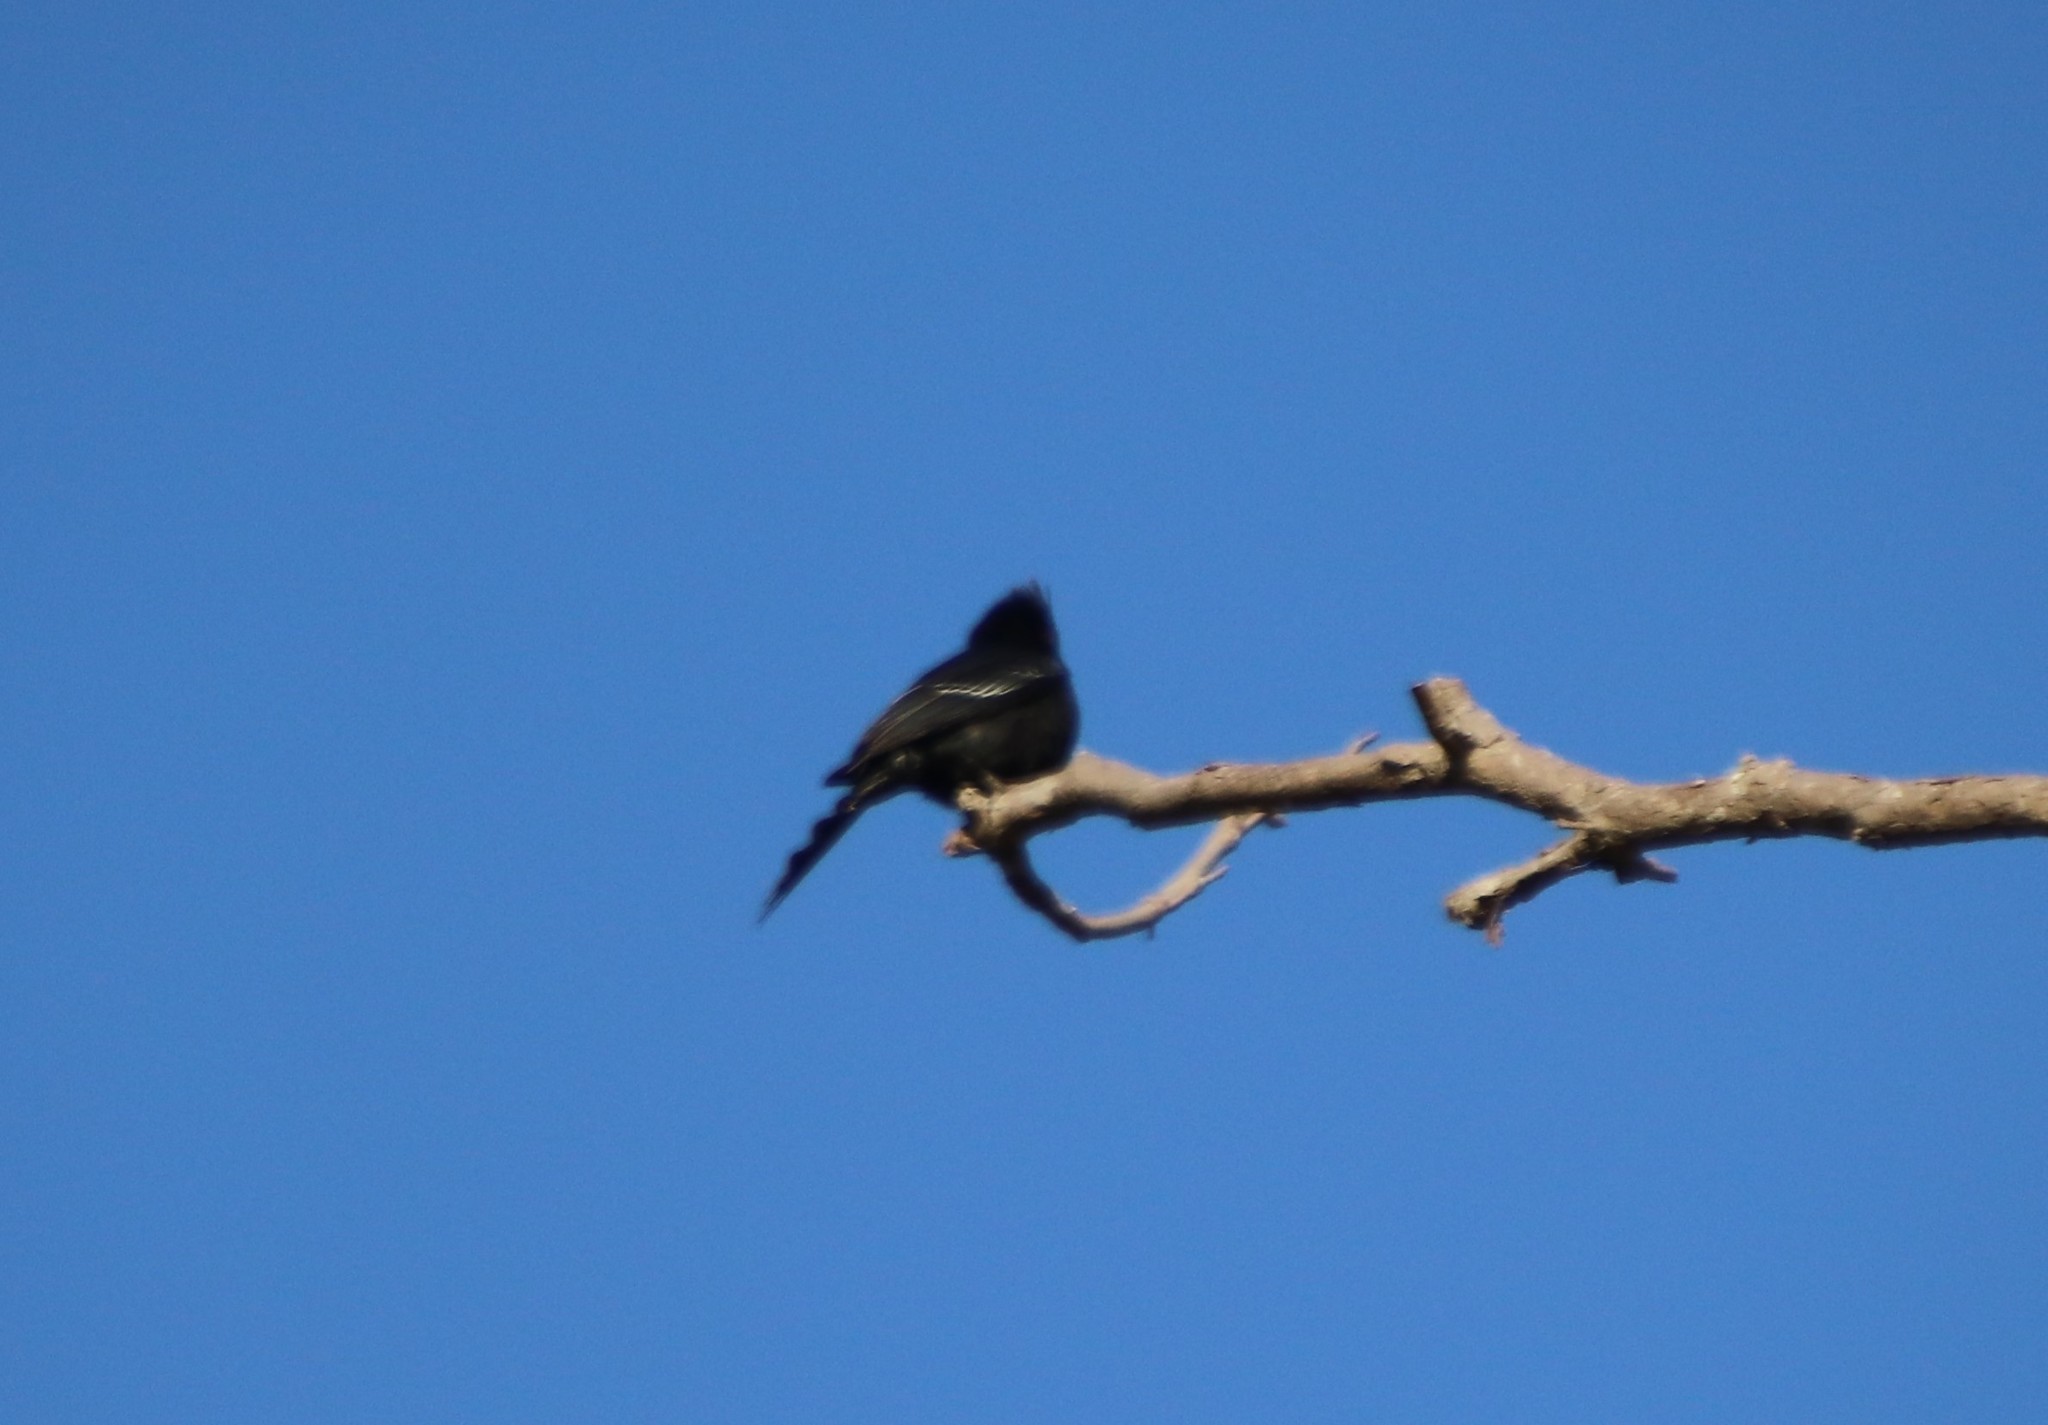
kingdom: Animalia
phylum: Chordata
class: Aves
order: Passeriformes
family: Ptilogonatidae
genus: Phainopepla
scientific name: Phainopepla nitens
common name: Phainopepla
